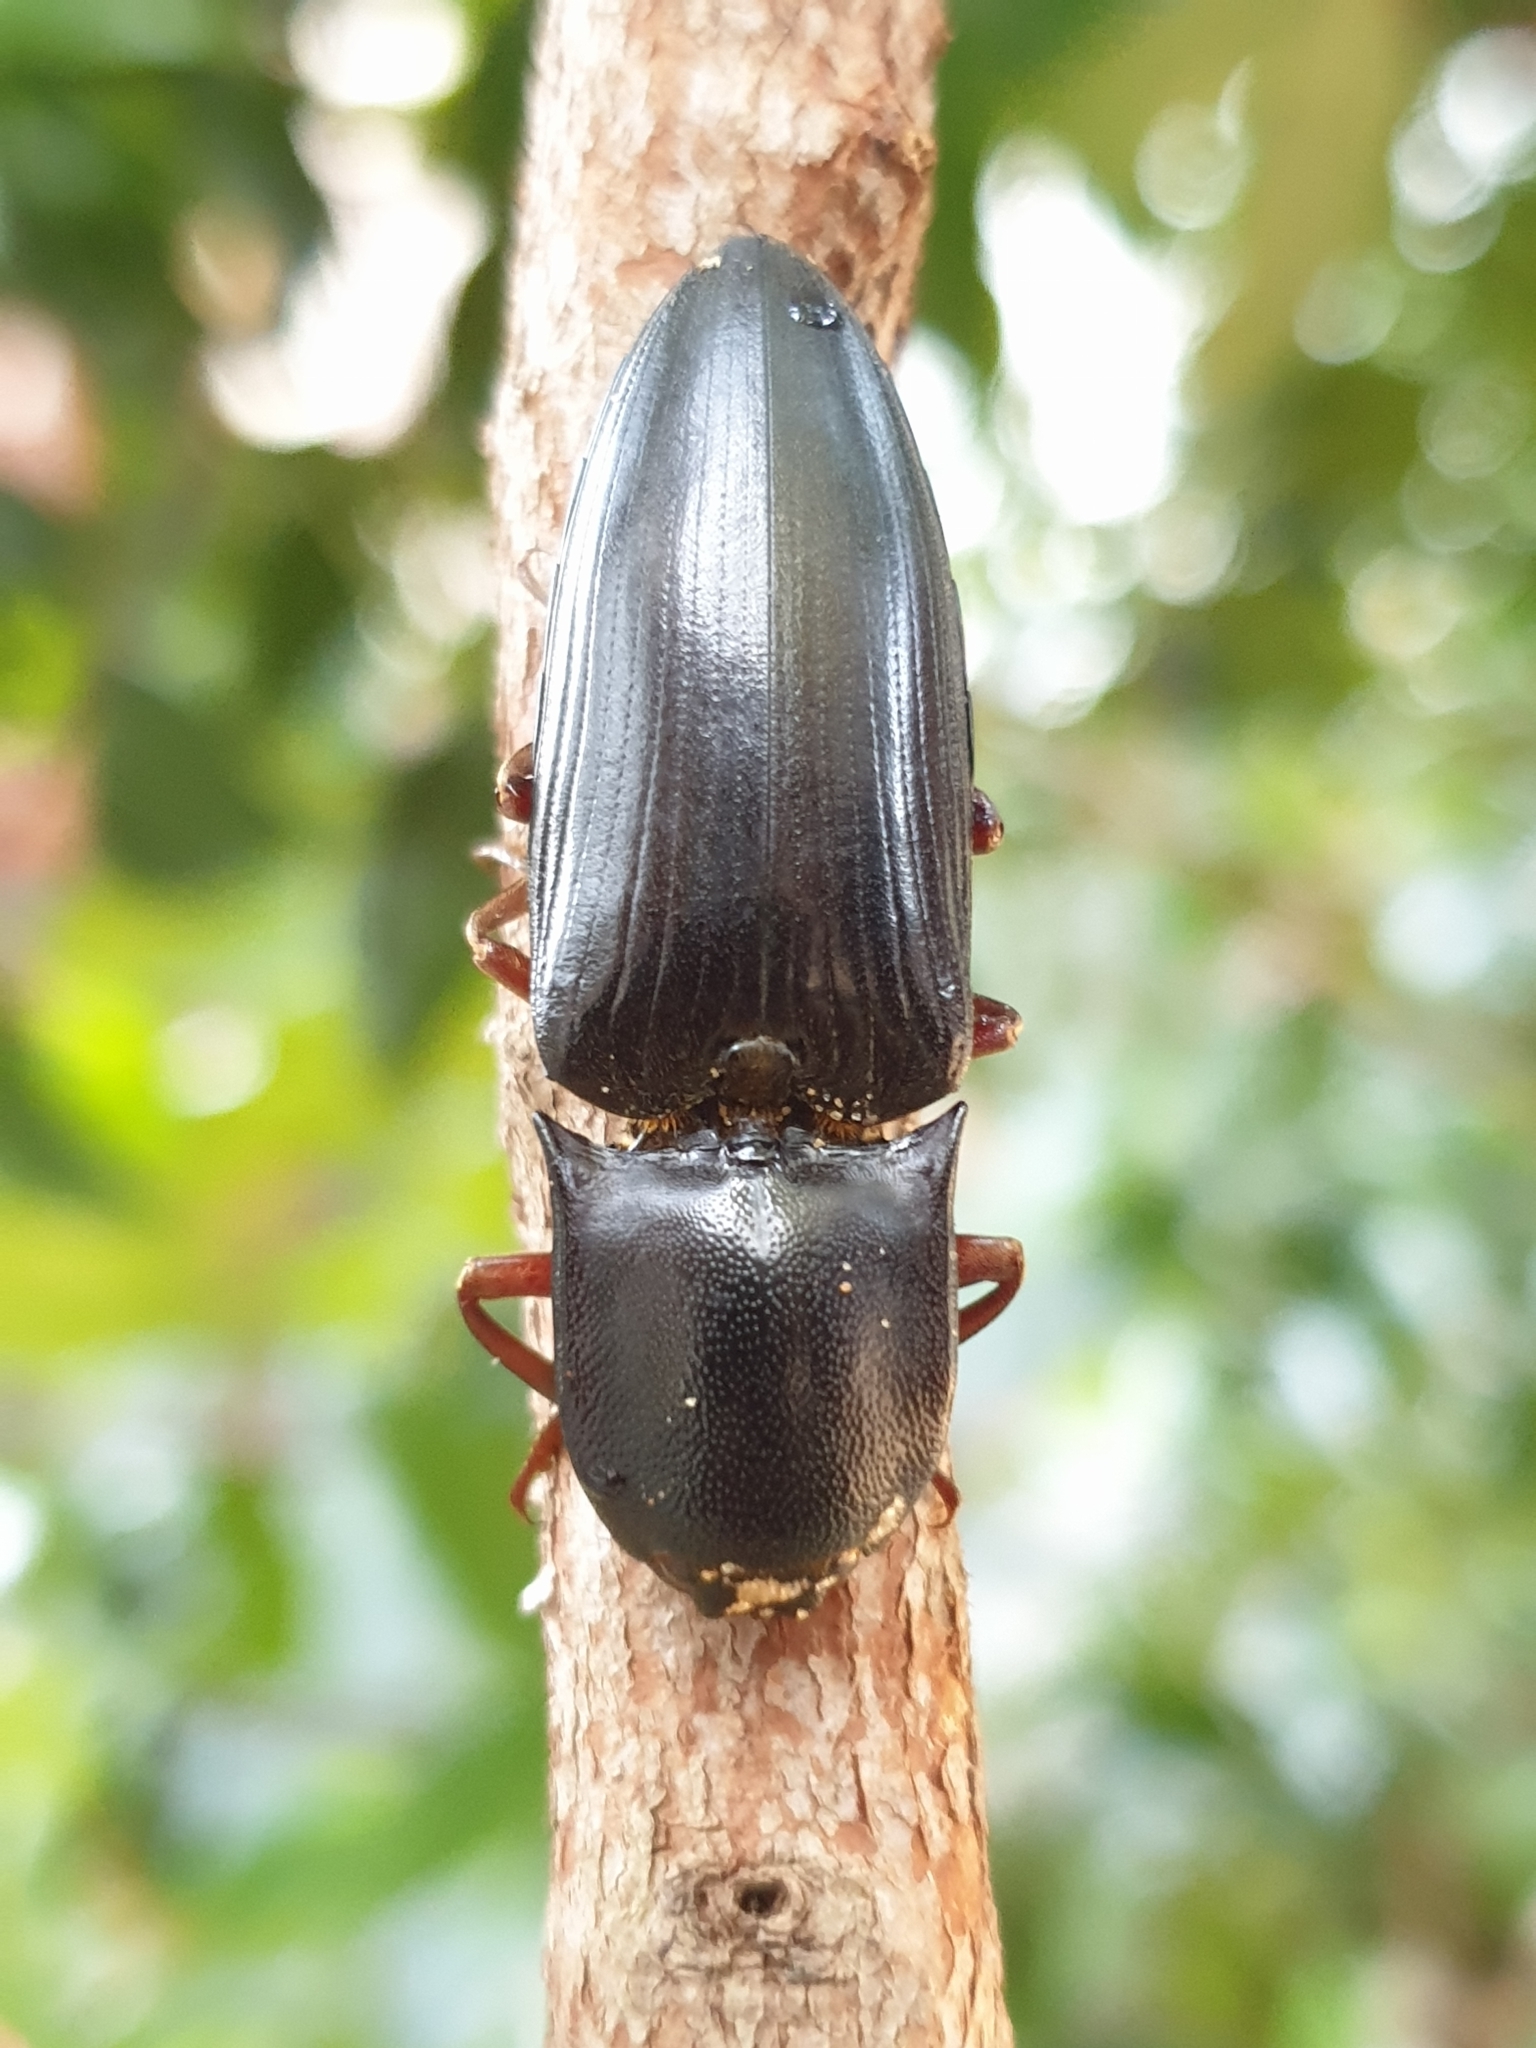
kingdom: Animalia
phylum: Arthropoda
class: Insecta
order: Coleoptera
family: Elateridae
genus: Lanelater
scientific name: Lanelater fuscipes
